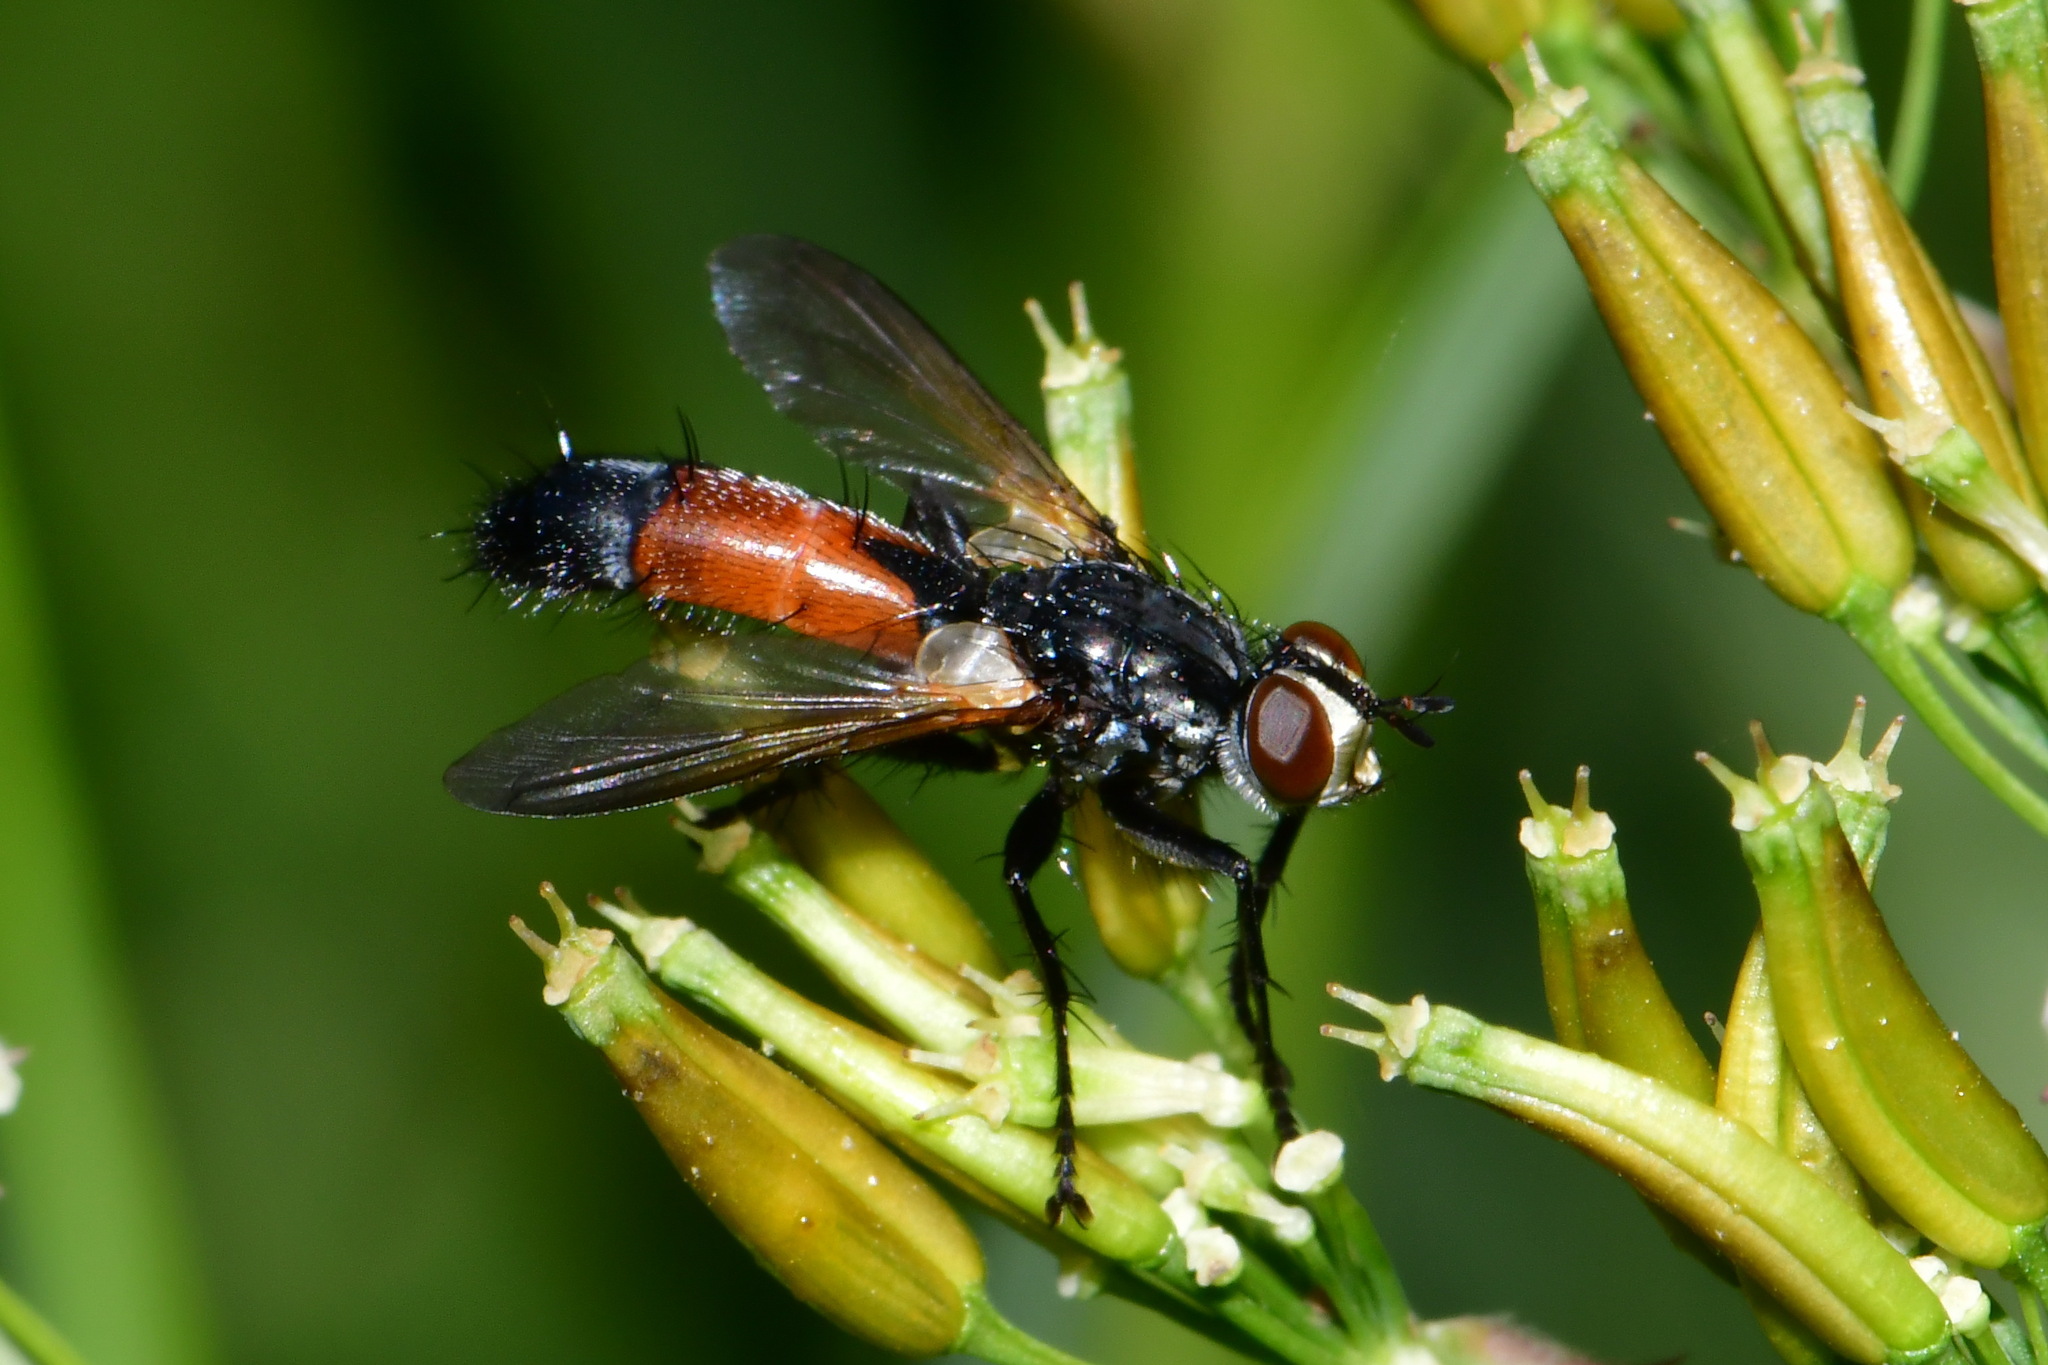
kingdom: Animalia
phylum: Arthropoda
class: Insecta
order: Diptera
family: Tachinidae
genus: Cylindromyia
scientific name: Cylindromyia intermedia
